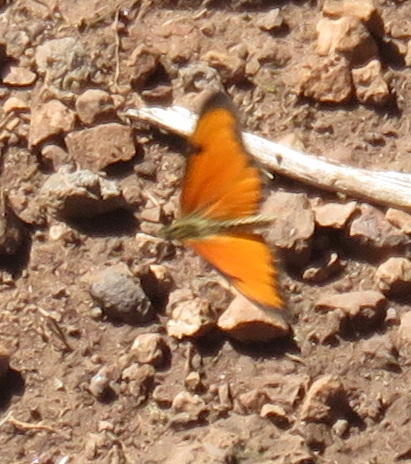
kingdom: Animalia
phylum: Arthropoda
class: Insecta
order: Lepidoptera
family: Nymphalidae
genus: Acraea
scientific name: Acraea Telchinia serena
